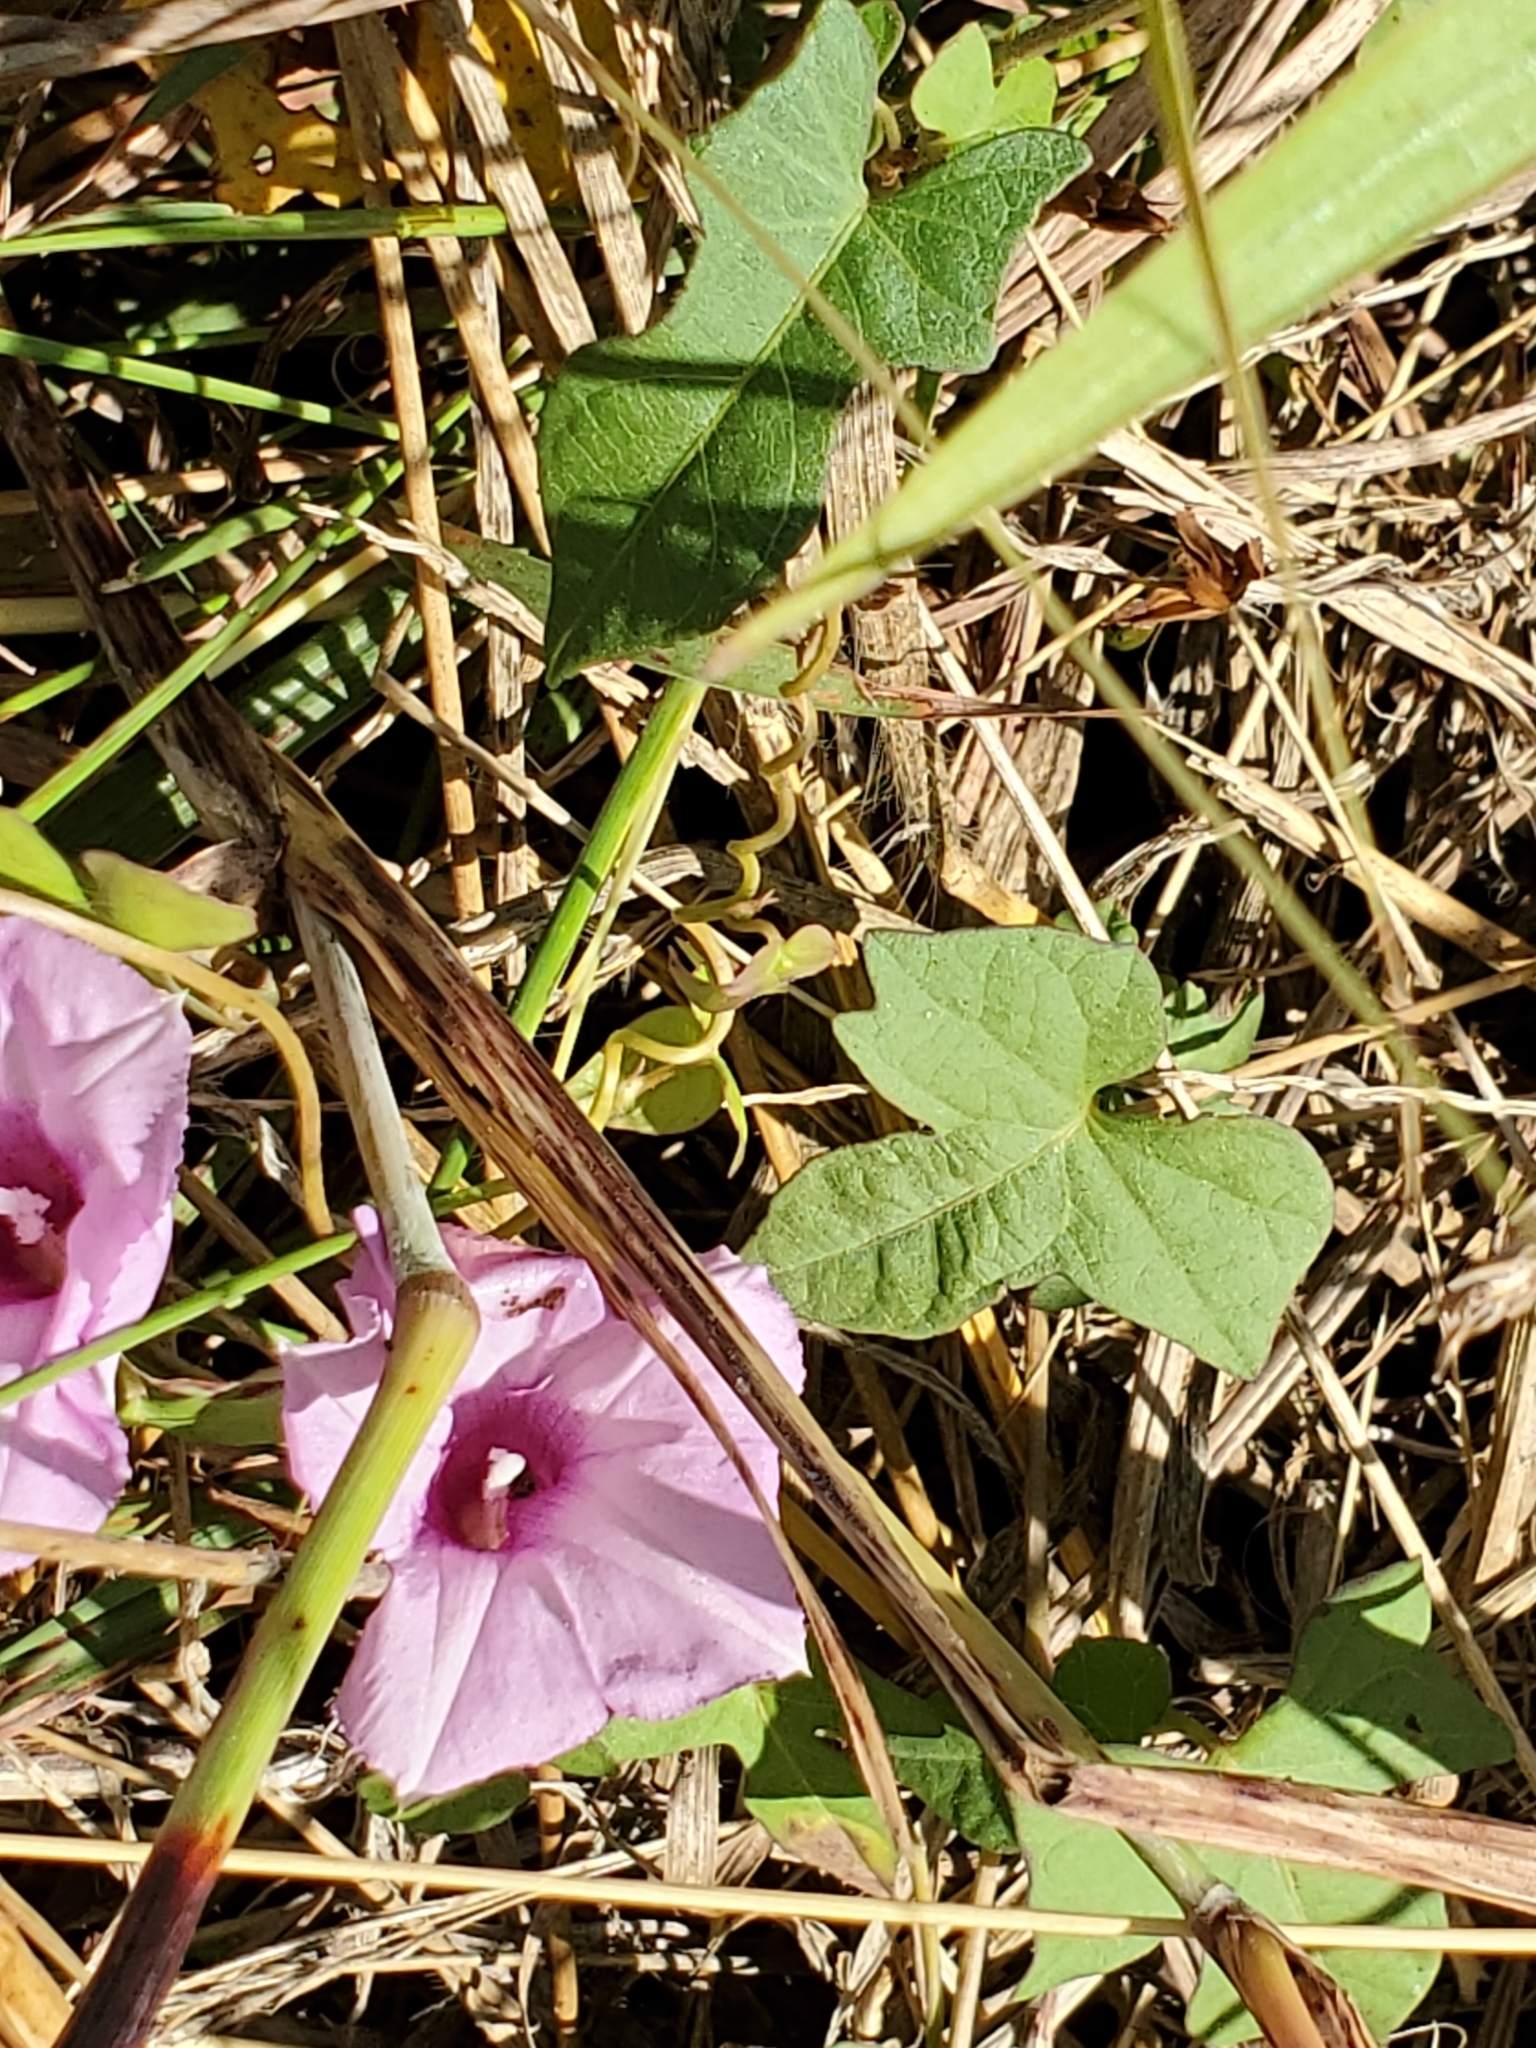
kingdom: Plantae
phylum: Tracheophyta
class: Magnoliopsida
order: Solanales
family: Convolvulaceae
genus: Ipomoea
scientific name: Ipomoea cordatotriloba
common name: Cotton morning glory
